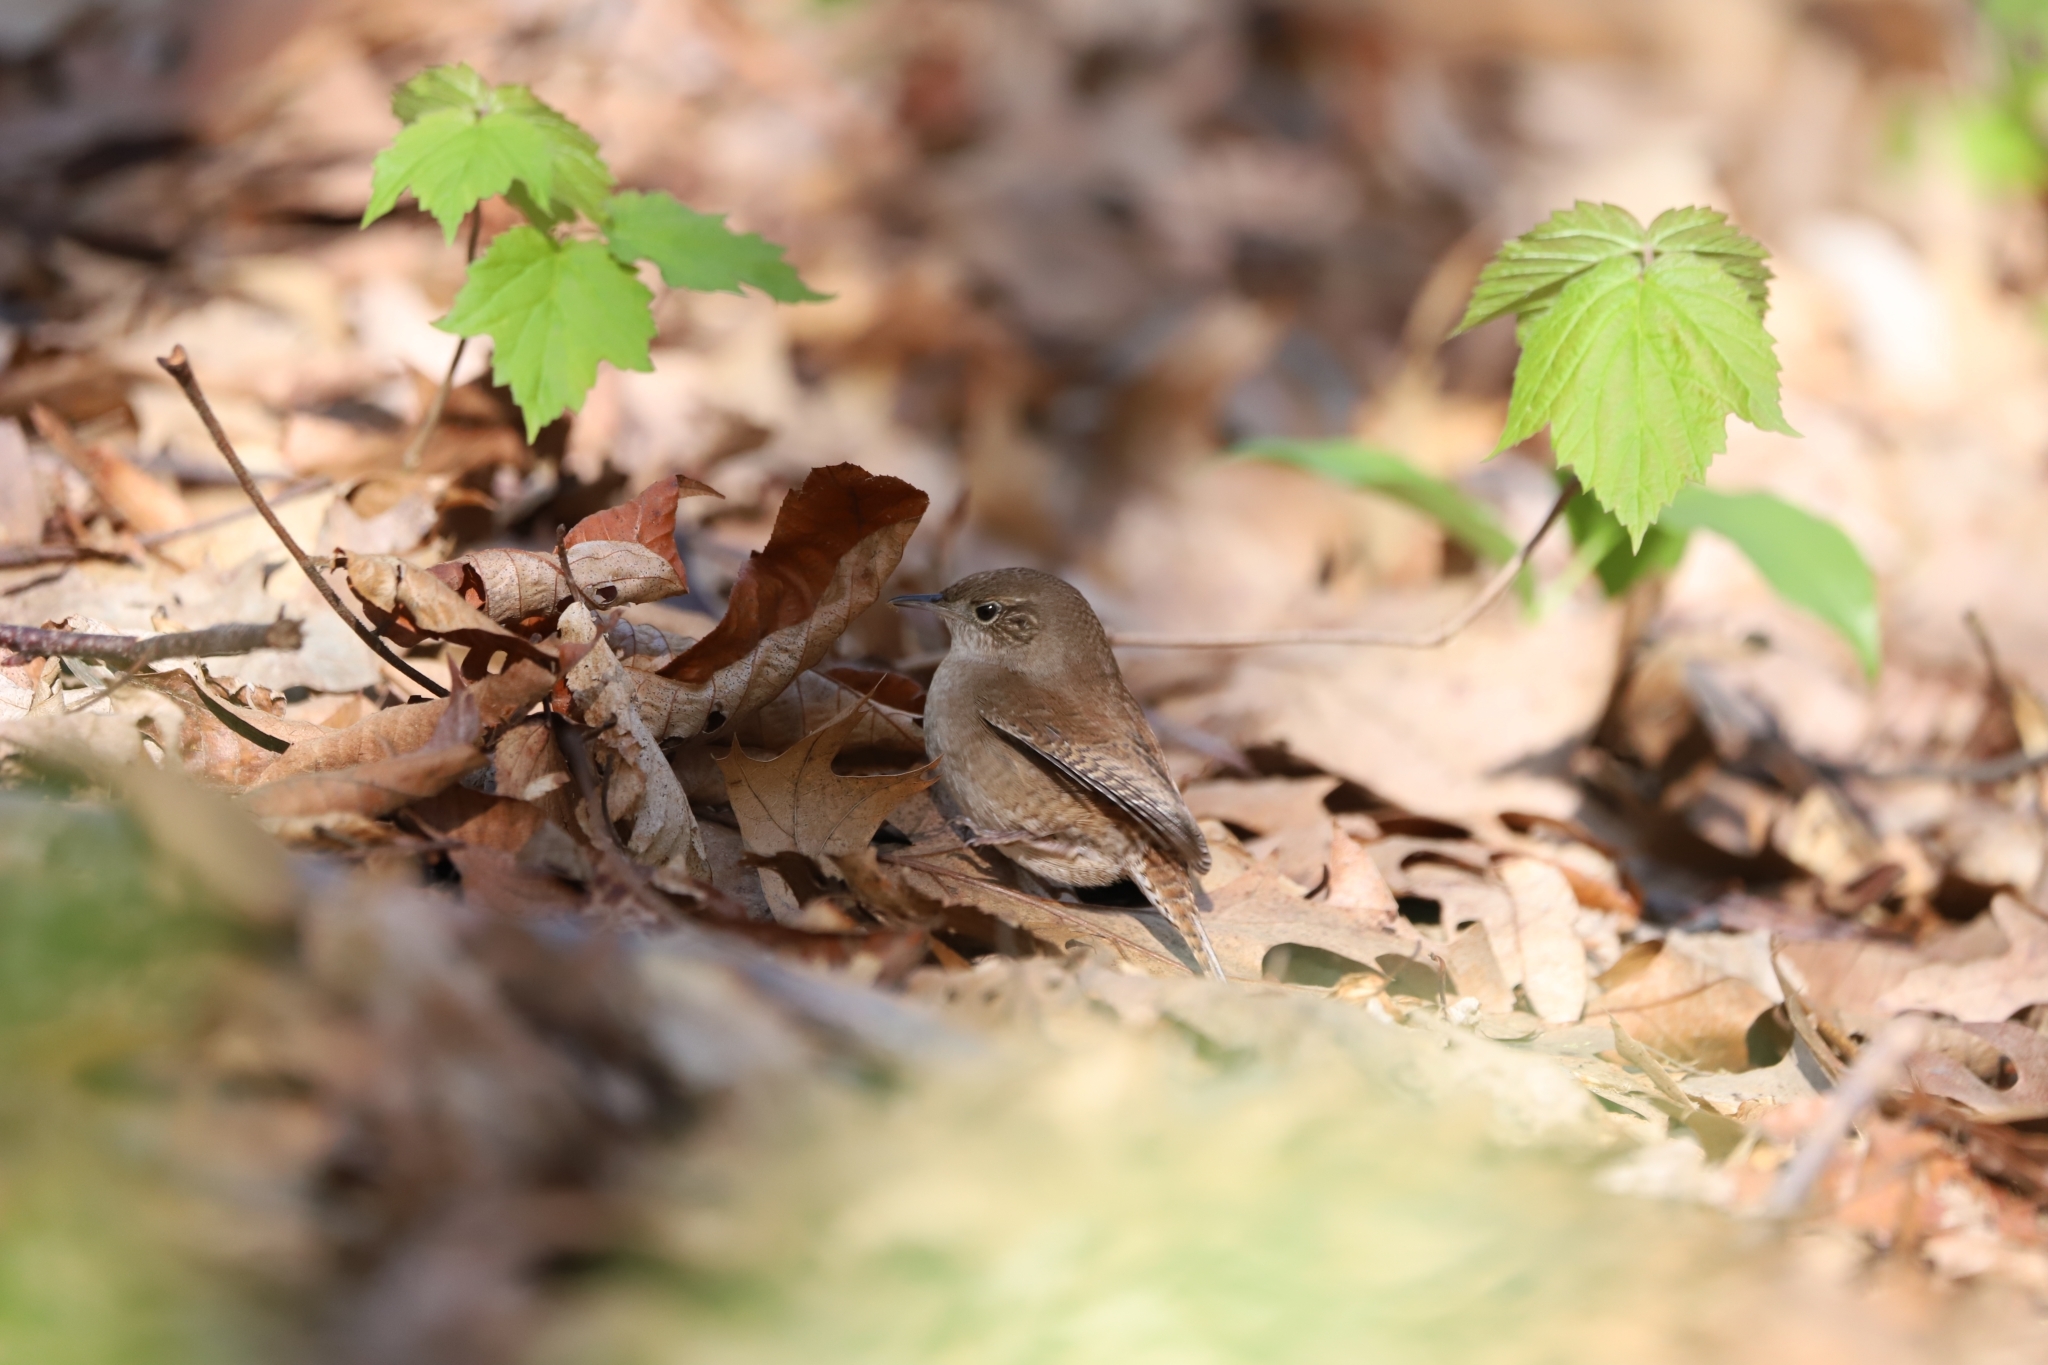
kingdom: Animalia
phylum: Chordata
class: Aves
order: Passeriformes
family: Troglodytidae
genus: Troglodytes
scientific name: Troglodytes aedon
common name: House wren
